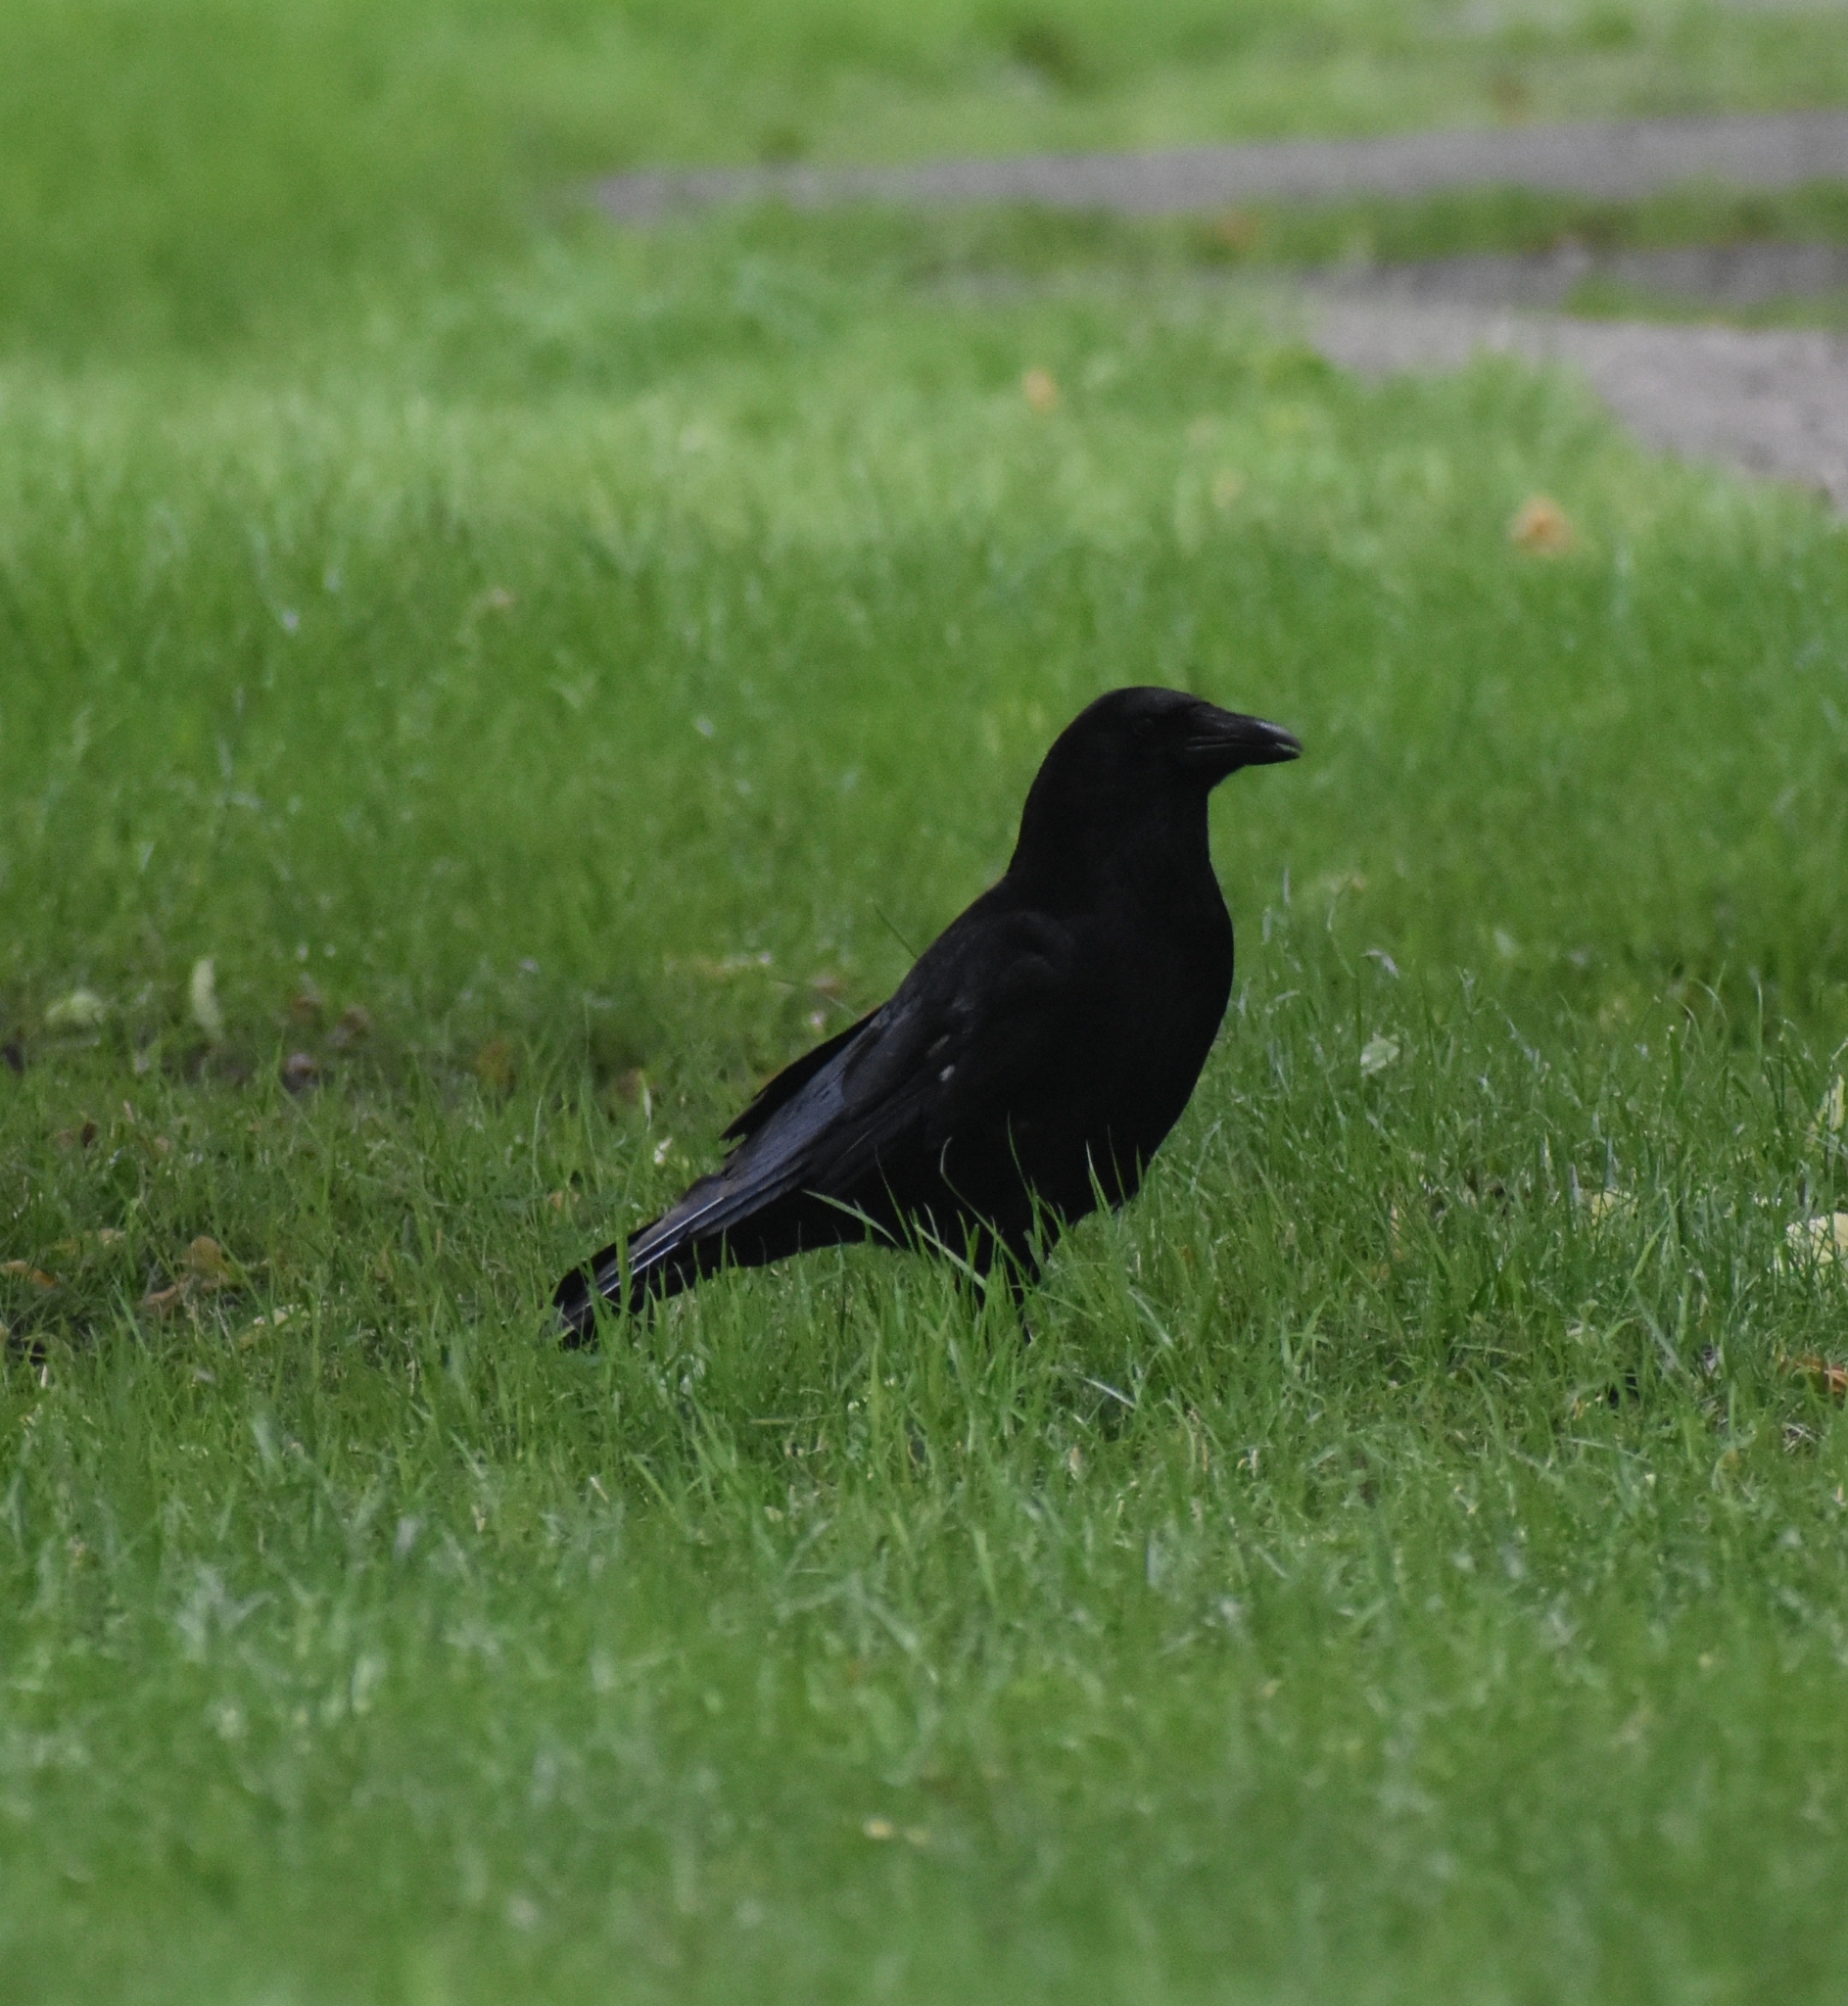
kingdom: Animalia
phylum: Chordata
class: Aves
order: Passeriformes
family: Corvidae
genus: Corvus
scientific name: Corvus corone
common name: Carrion crow
